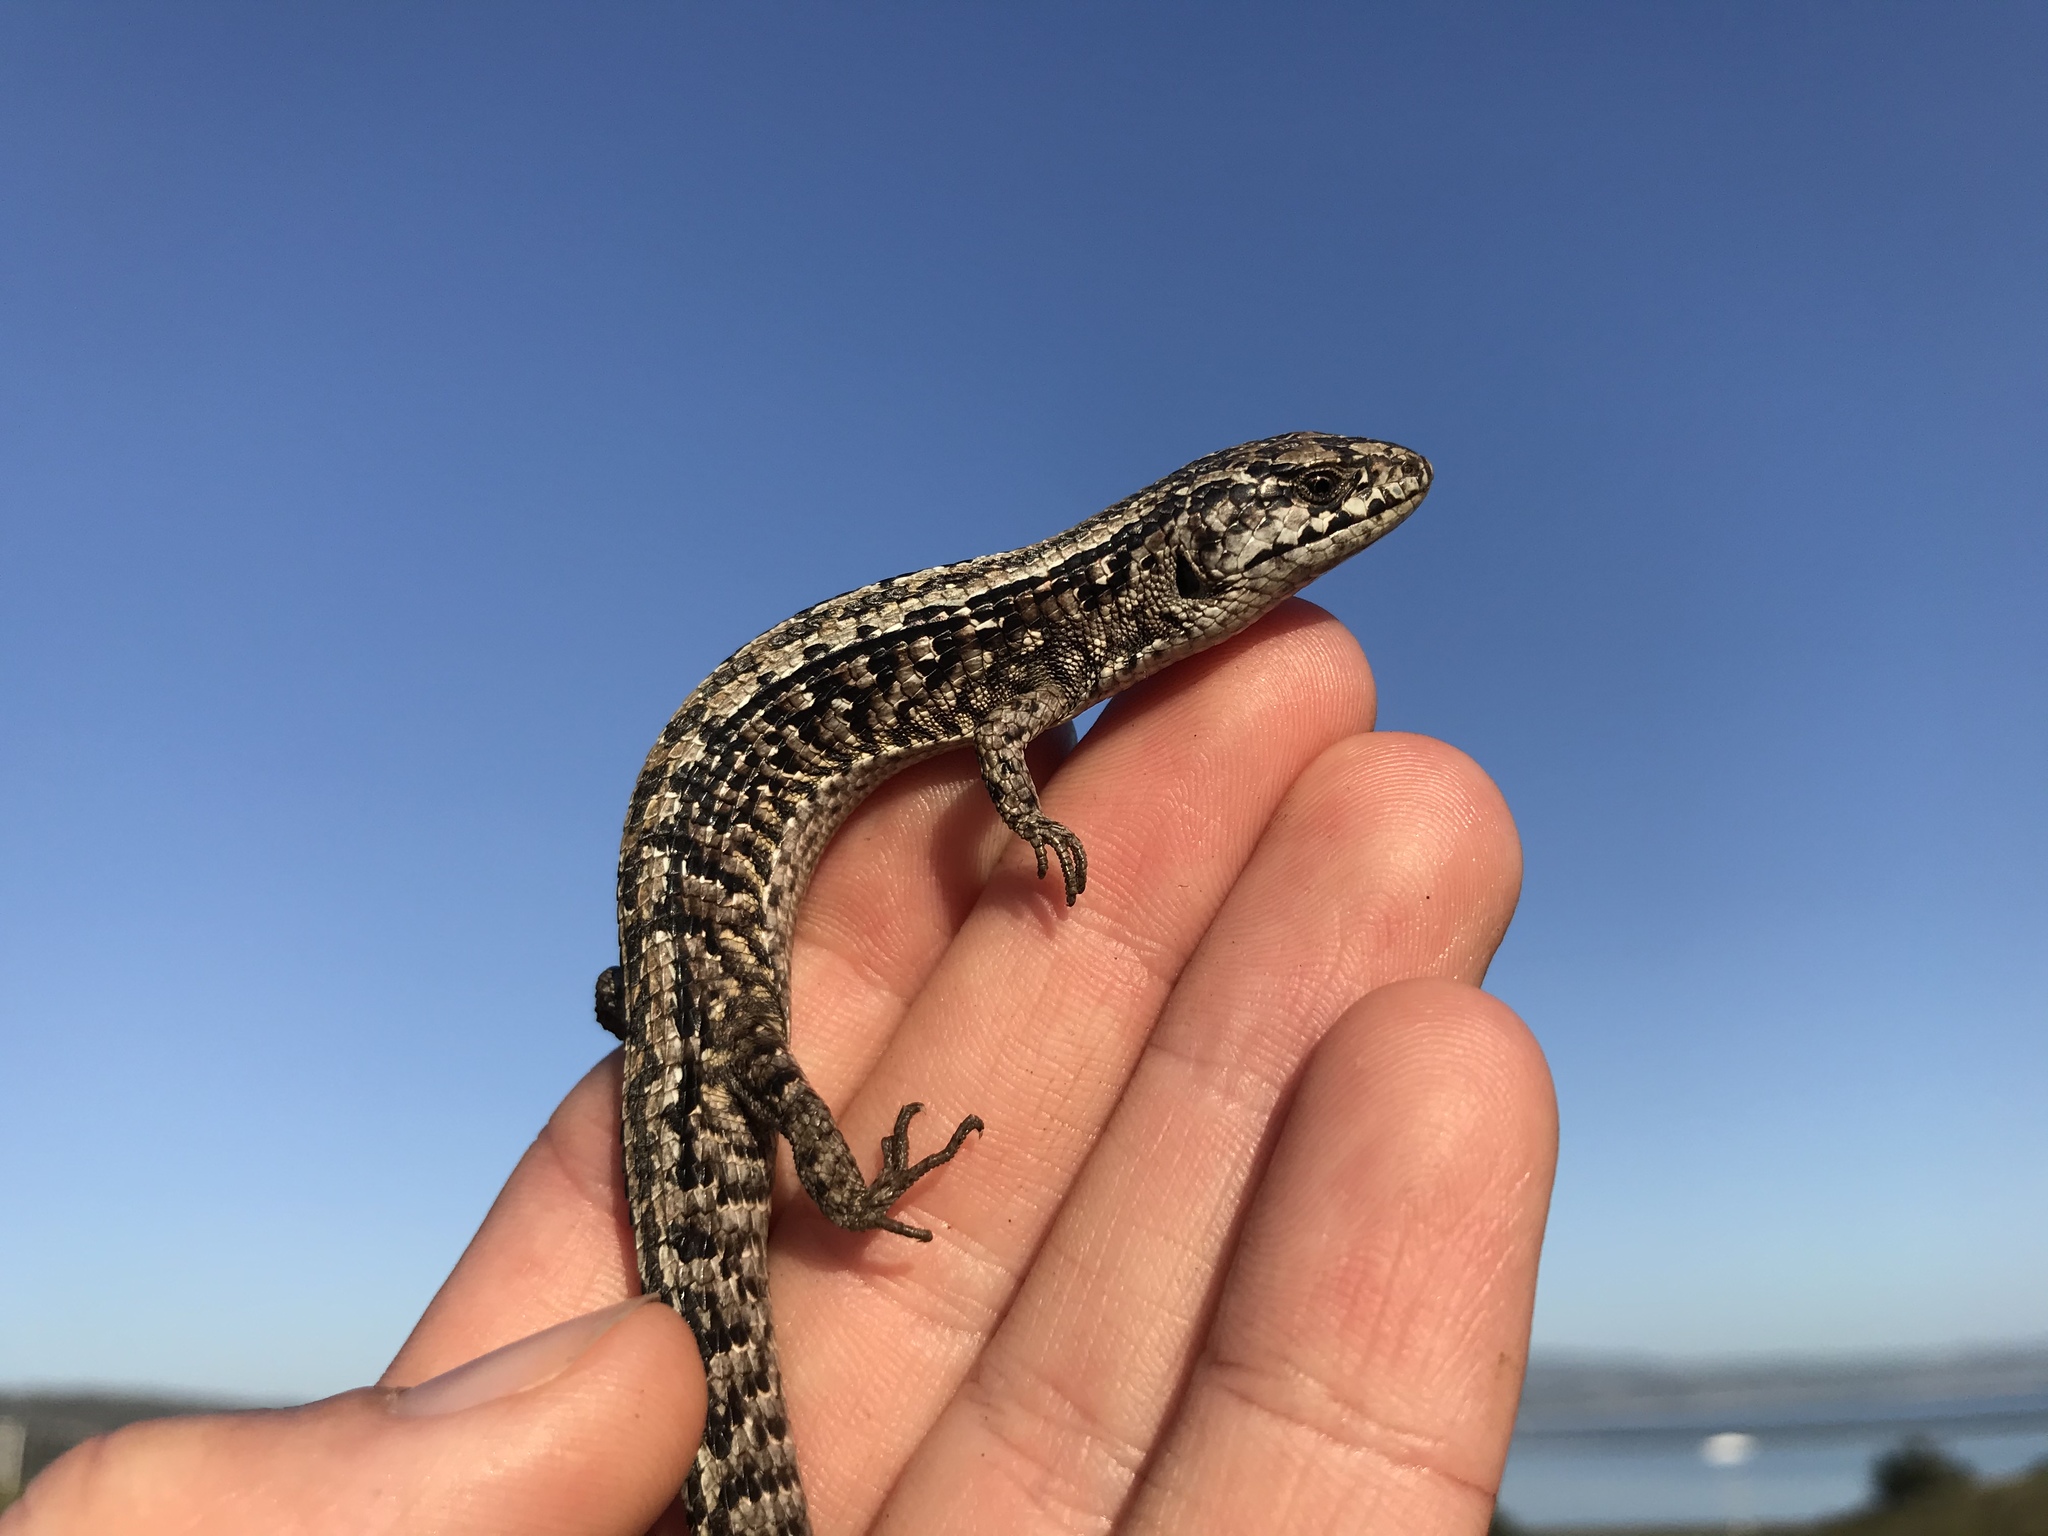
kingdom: Animalia
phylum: Chordata
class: Squamata
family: Anguidae
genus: Elgaria
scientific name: Elgaria coerulea
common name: Northern alligator lizard
